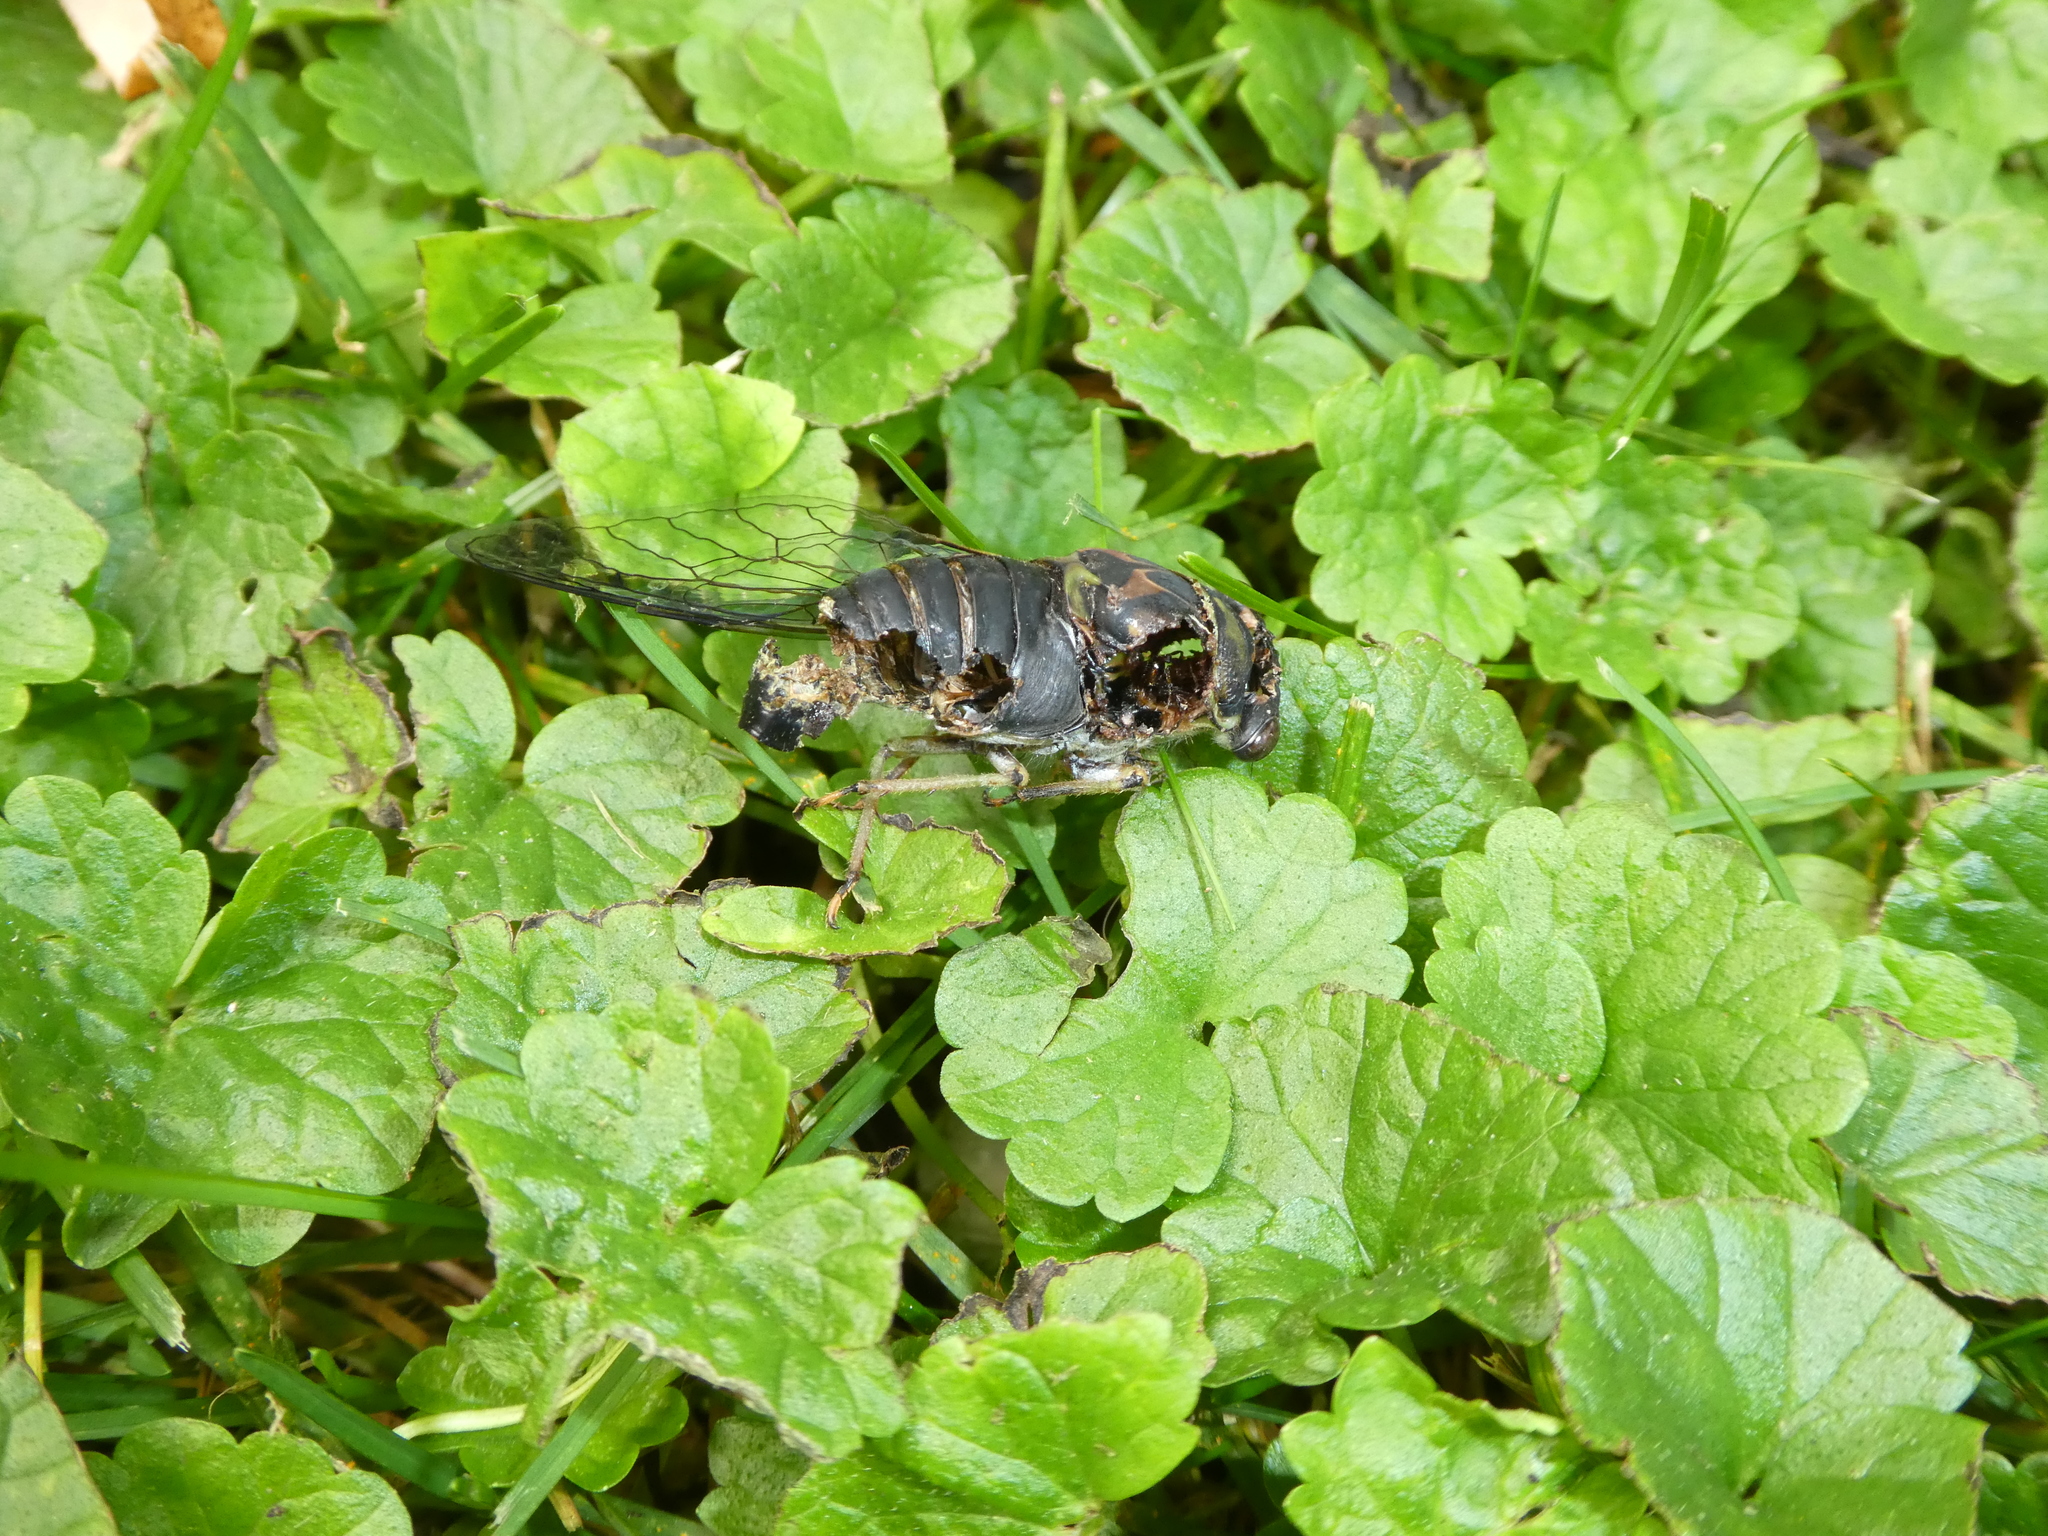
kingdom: Animalia
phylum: Arthropoda
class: Insecta
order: Hemiptera
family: Cicadidae
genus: Neotibicen
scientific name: Neotibicen canicularis
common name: God-day cicada
